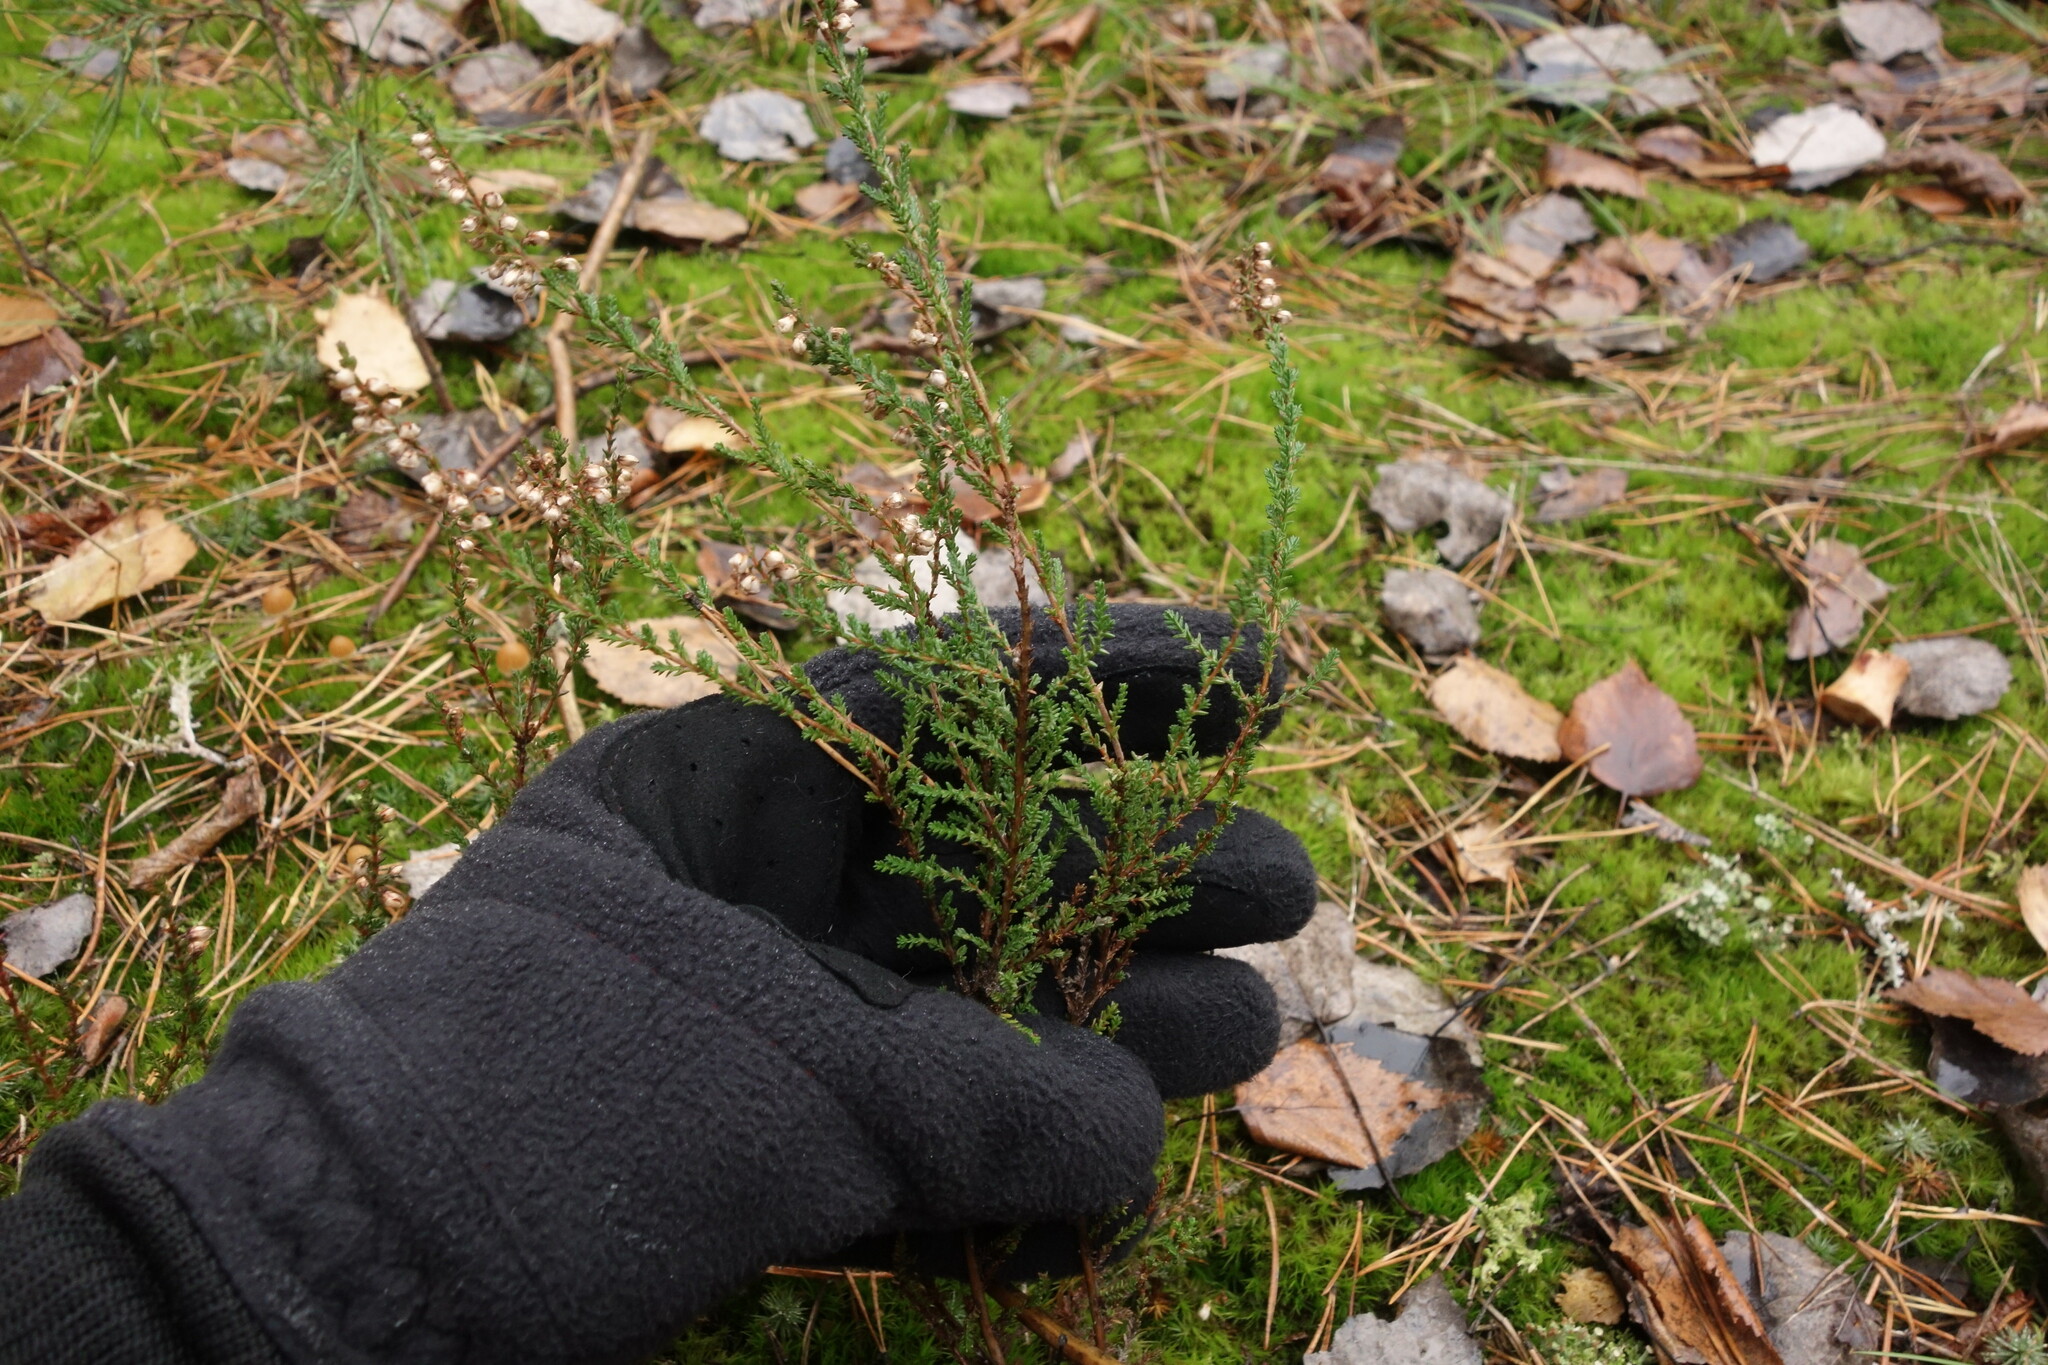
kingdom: Plantae
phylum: Tracheophyta
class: Magnoliopsida
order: Ericales
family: Ericaceae
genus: Calluna
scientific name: Calluna vulgaris
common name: Heather
